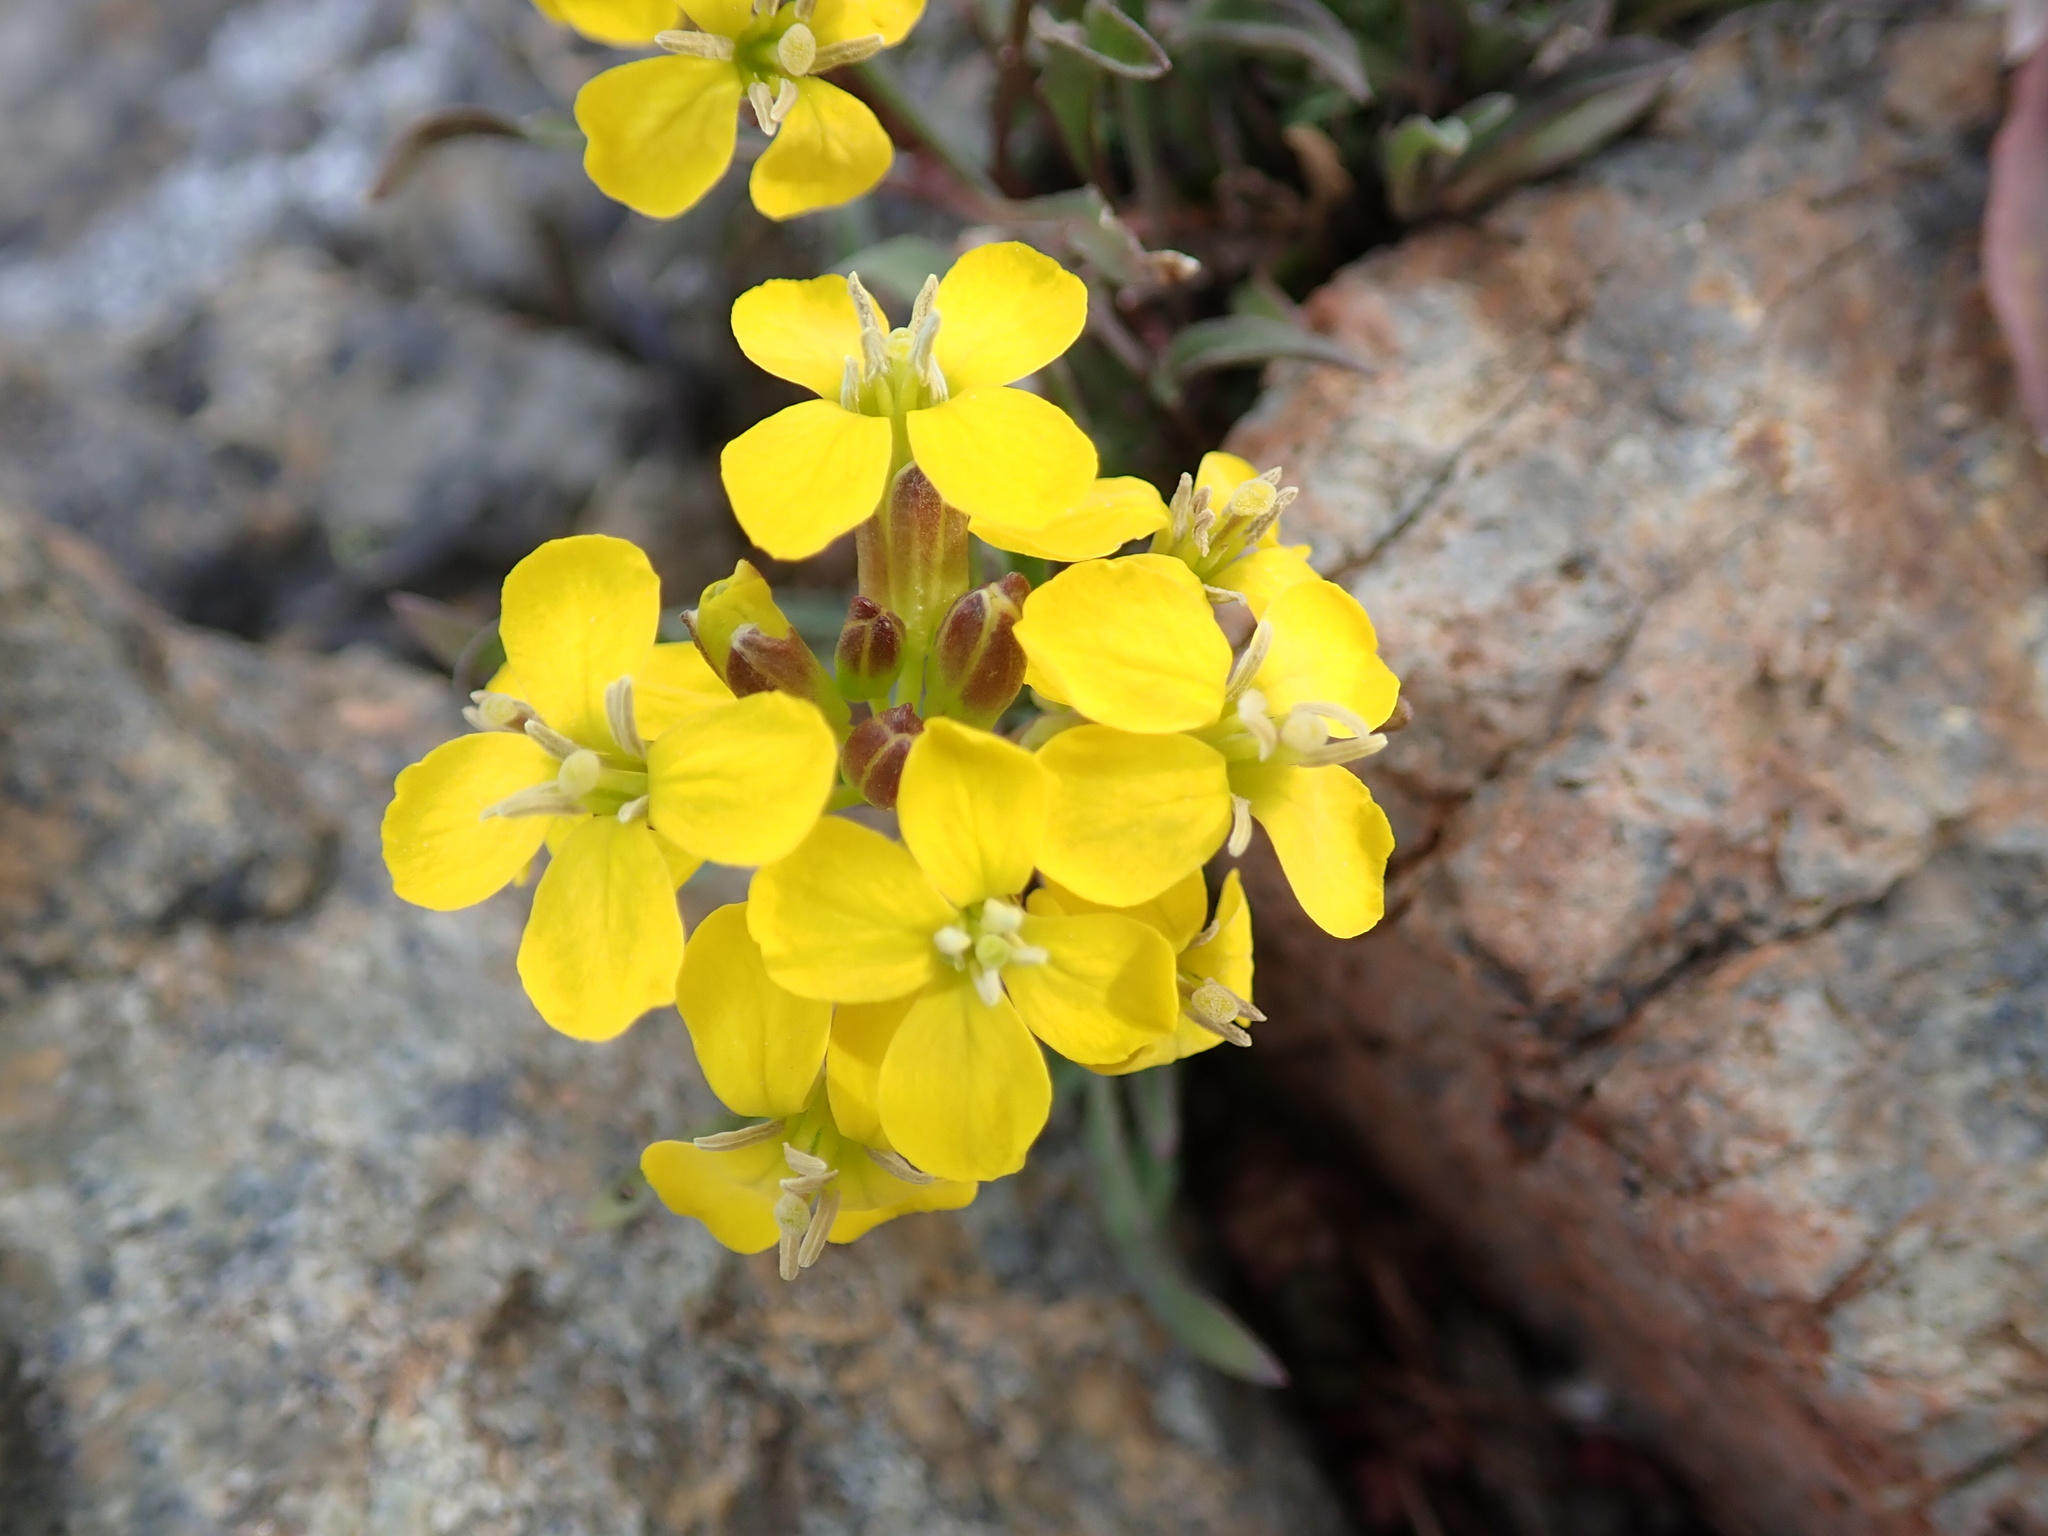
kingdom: Plantae
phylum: Tracheophyta
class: Magnoliopsida
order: Brassicales
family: Brassicaceae
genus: Erysimum
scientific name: Erysimum capitatum
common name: Western wallflower
